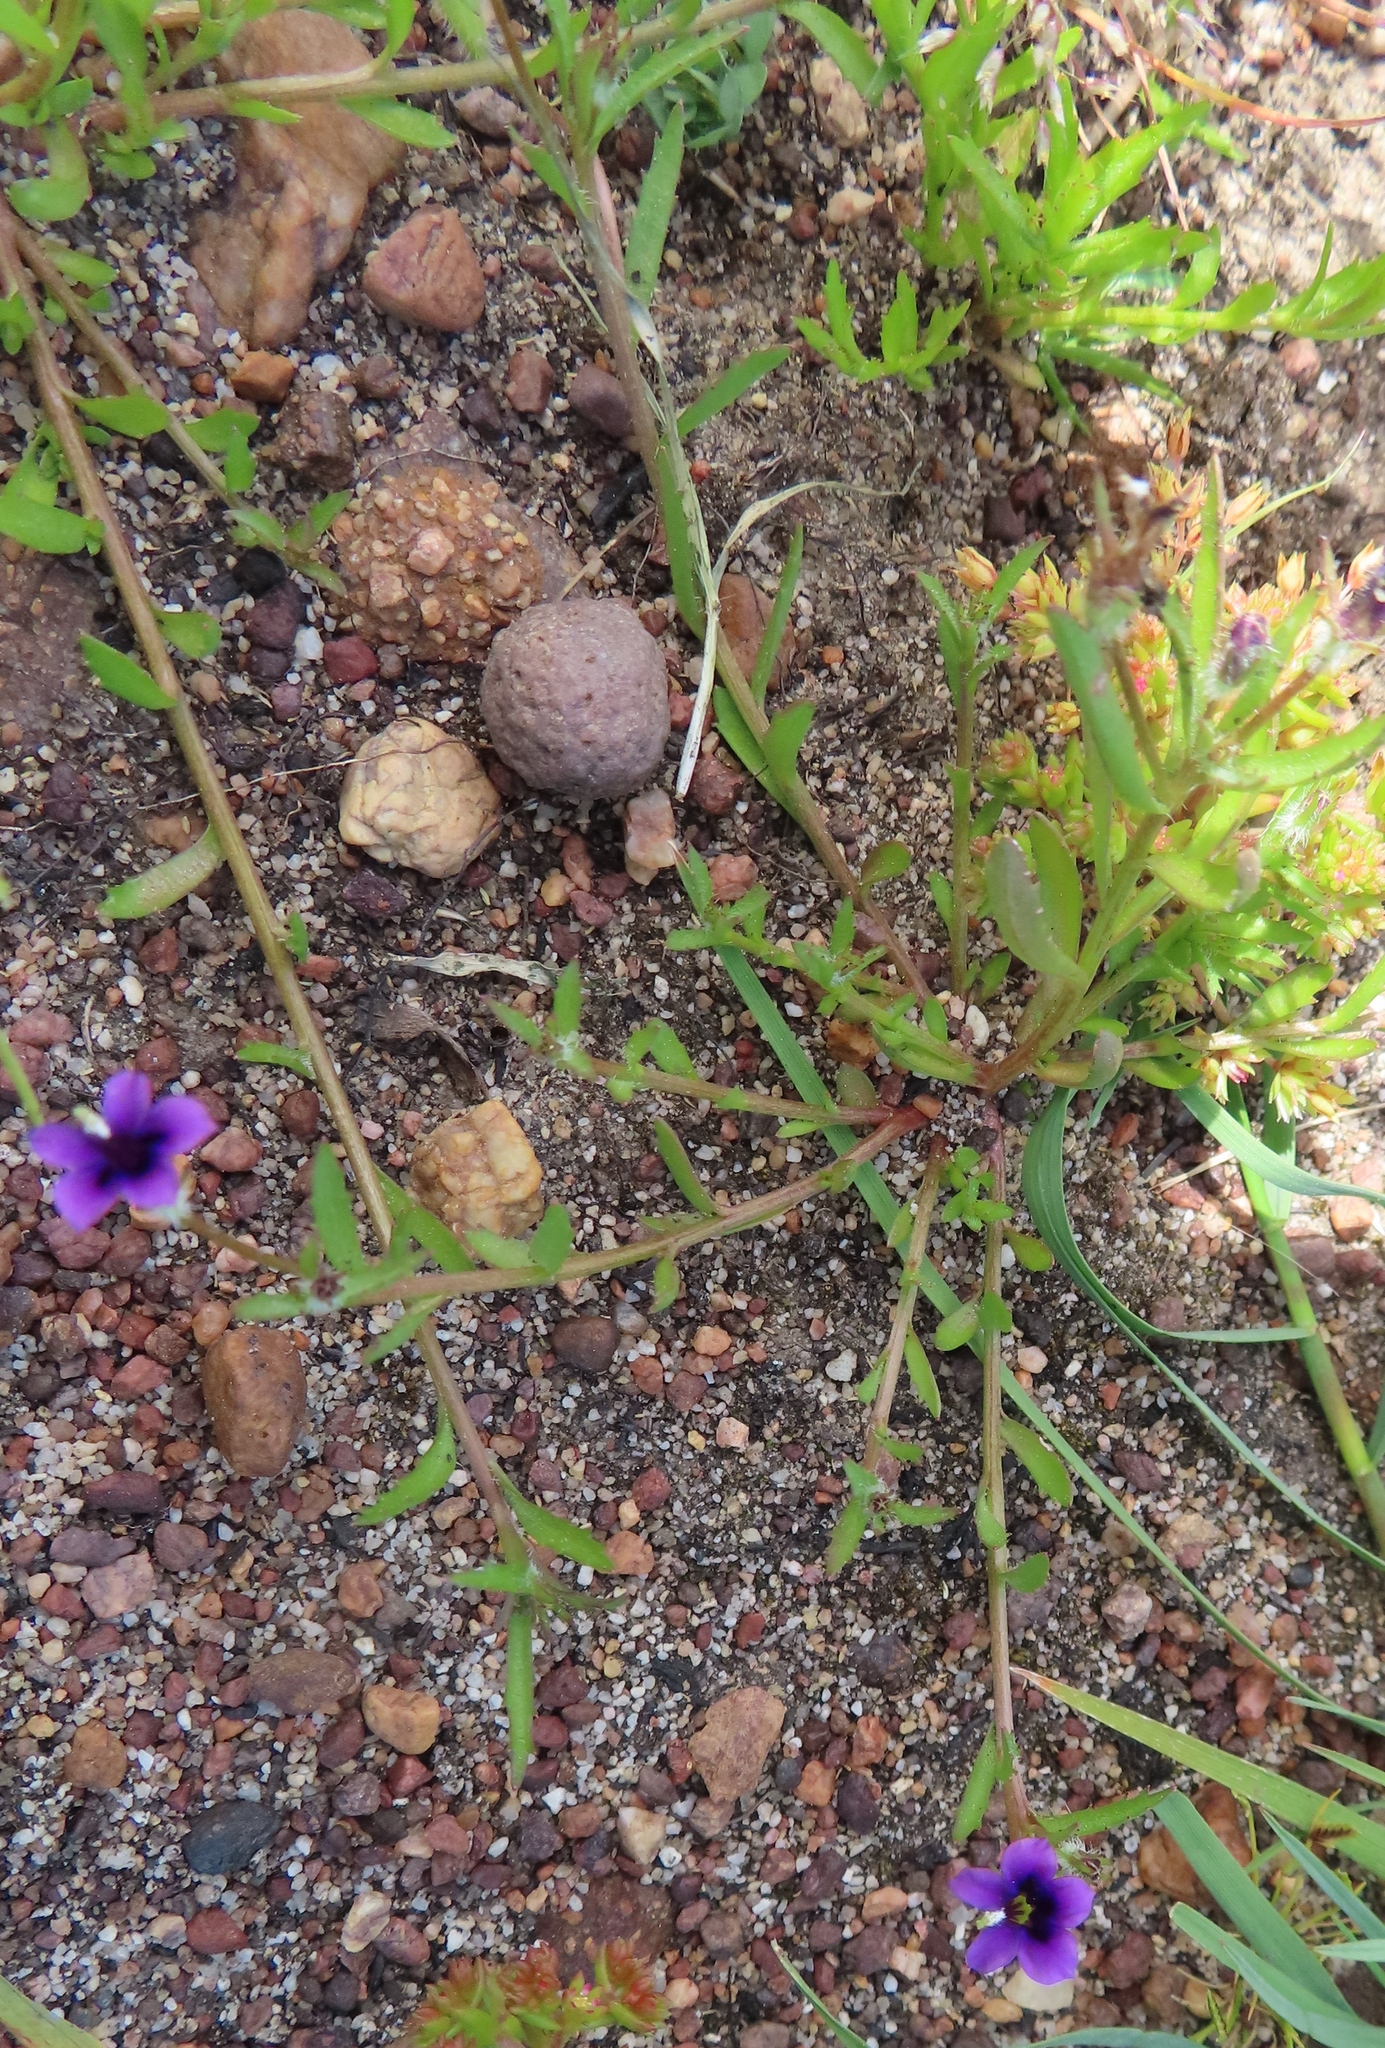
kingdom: Plantae
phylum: Tracheophyta
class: Magnoliopsida
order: Asterales
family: Campanulaceae
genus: Monopsis
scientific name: Monopsis debilis
